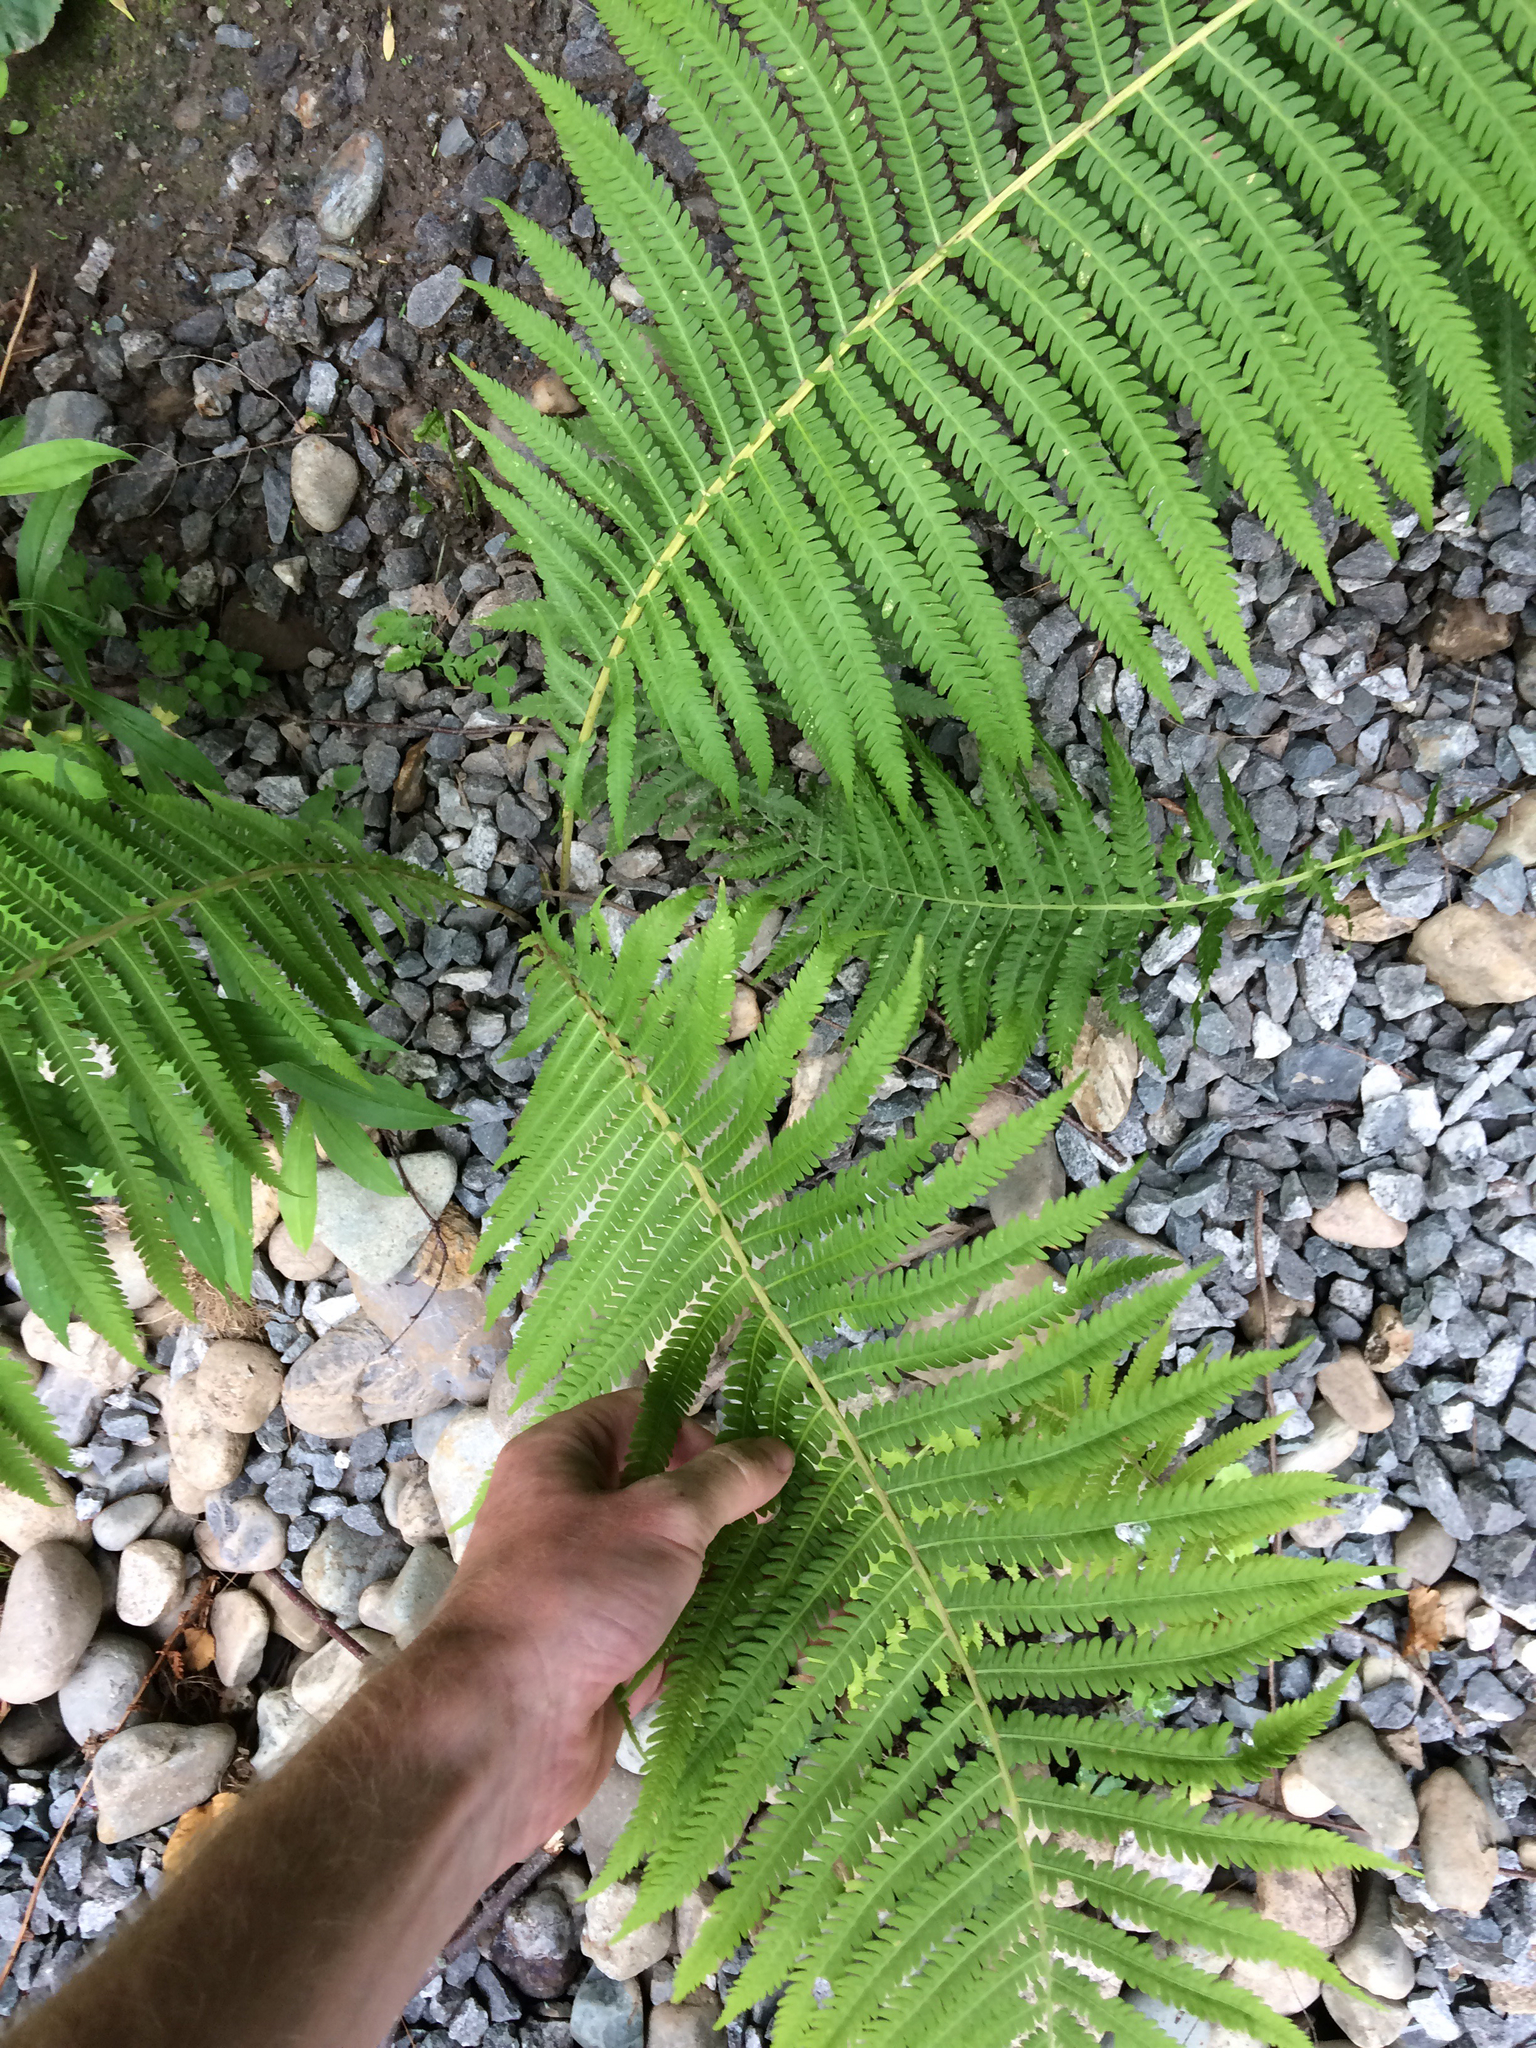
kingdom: Plantae
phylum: Tracheophyta
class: Polypodiopsida
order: Polypodiales
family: Onocleaceae
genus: Matteuccia
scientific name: Matteuccia struthiopteris
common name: Ostrich fern
